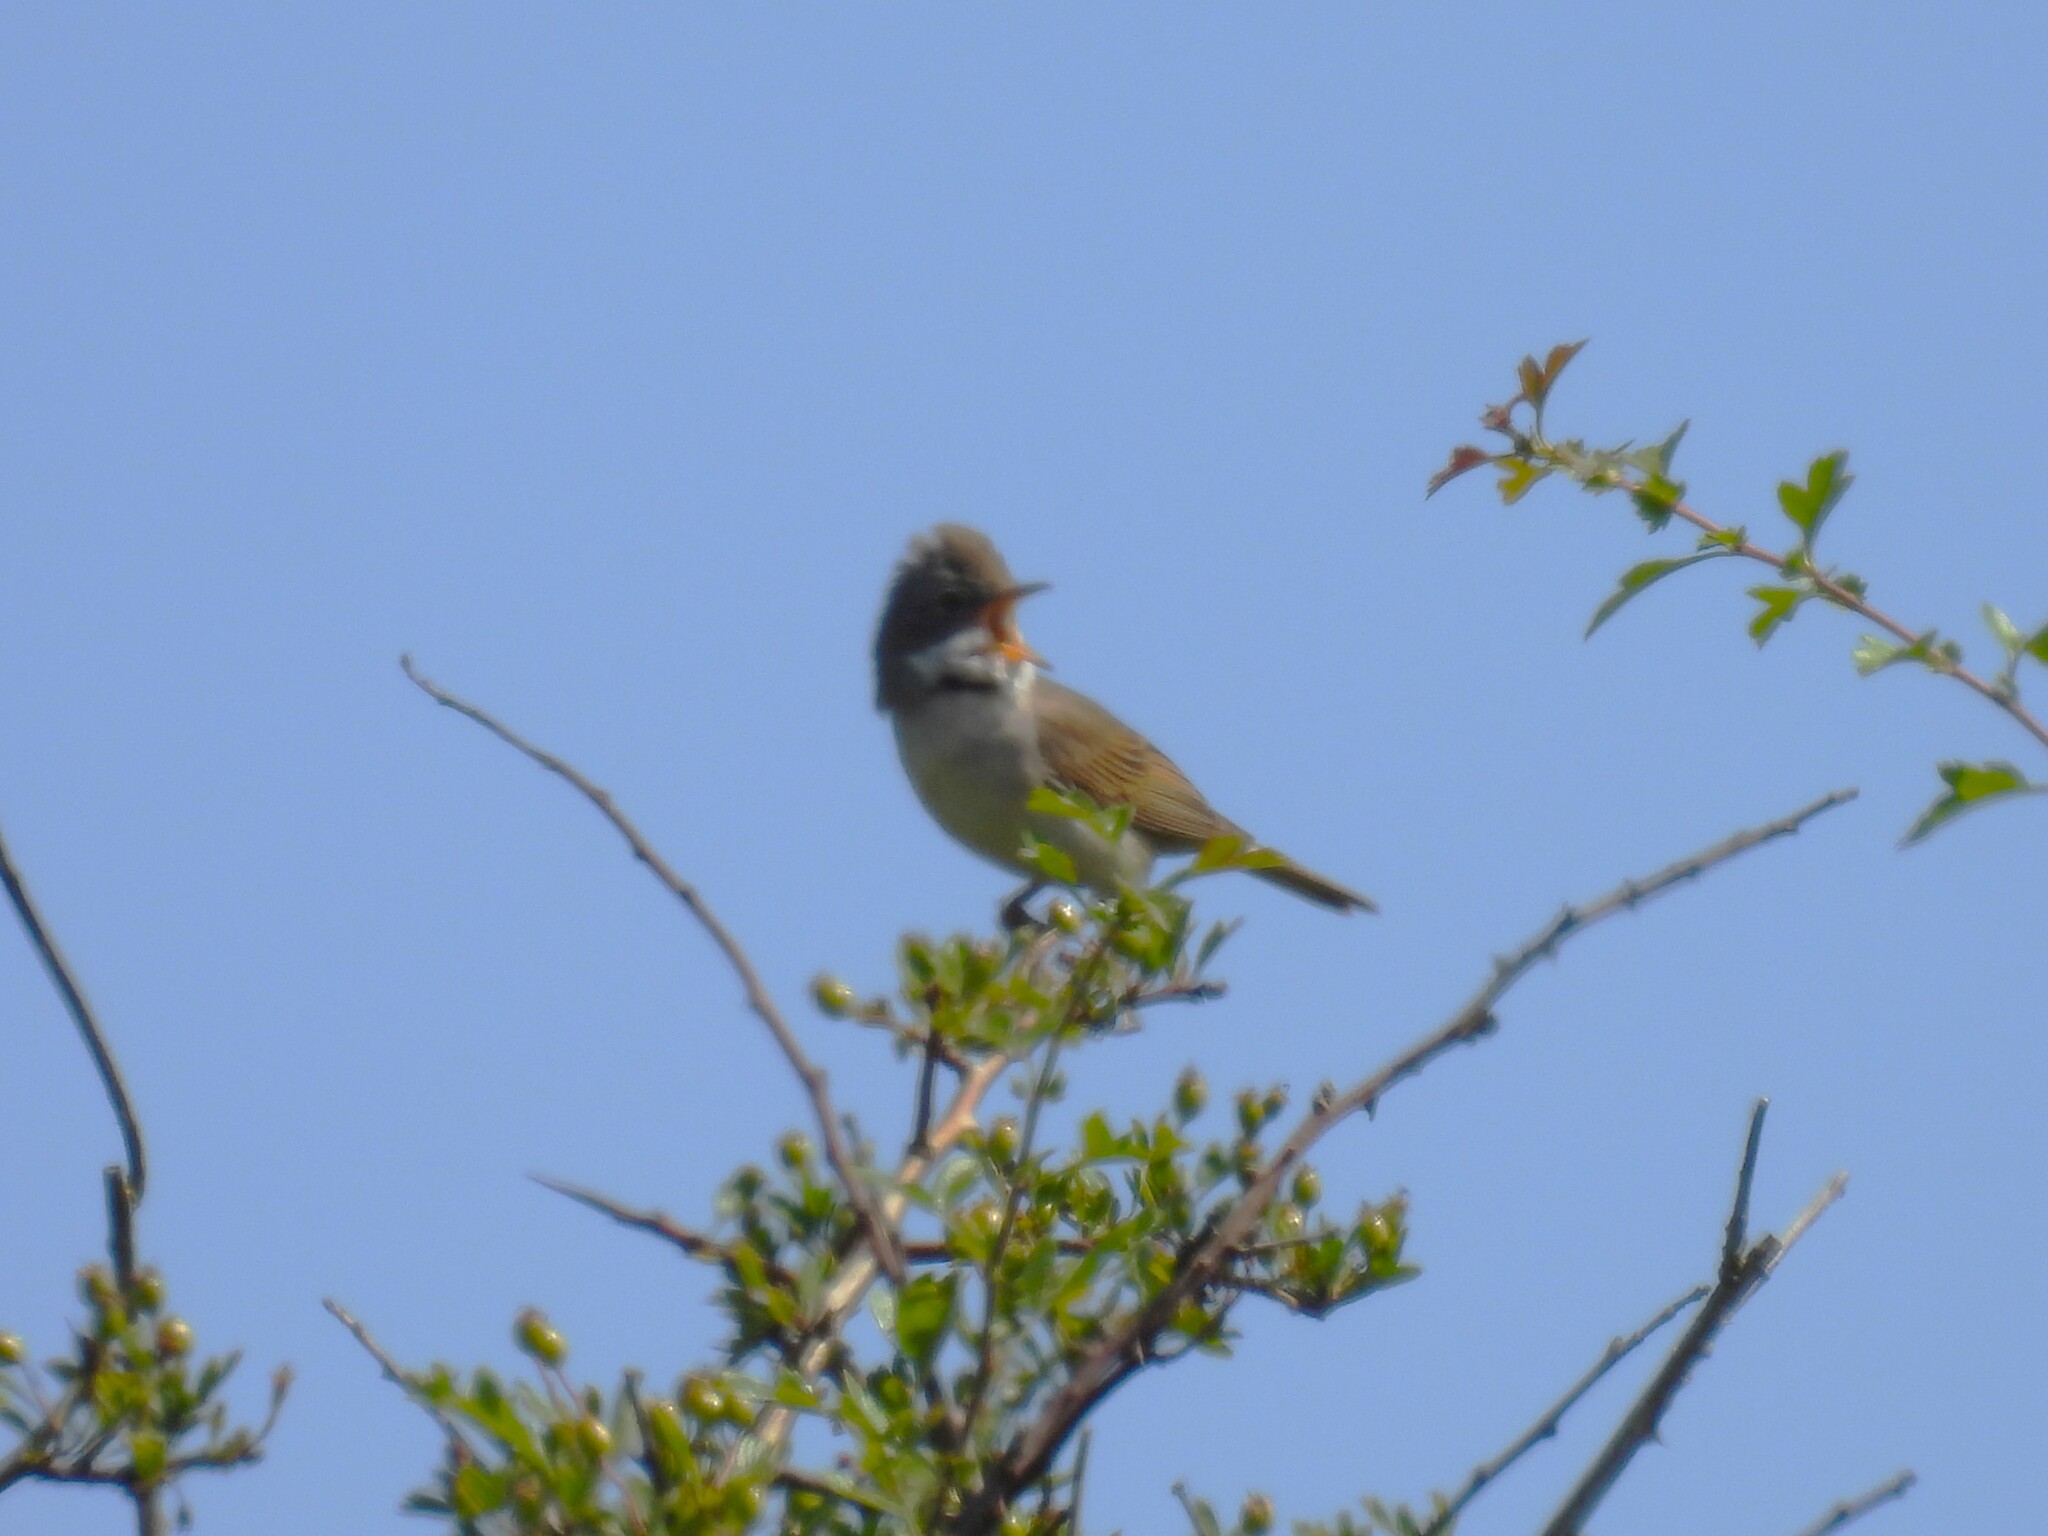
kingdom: Animalia
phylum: Chordata
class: Aves
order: Passeriformes
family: Sylviidae
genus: Sylvia
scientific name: Sylvia communis
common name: Common whitethroat
